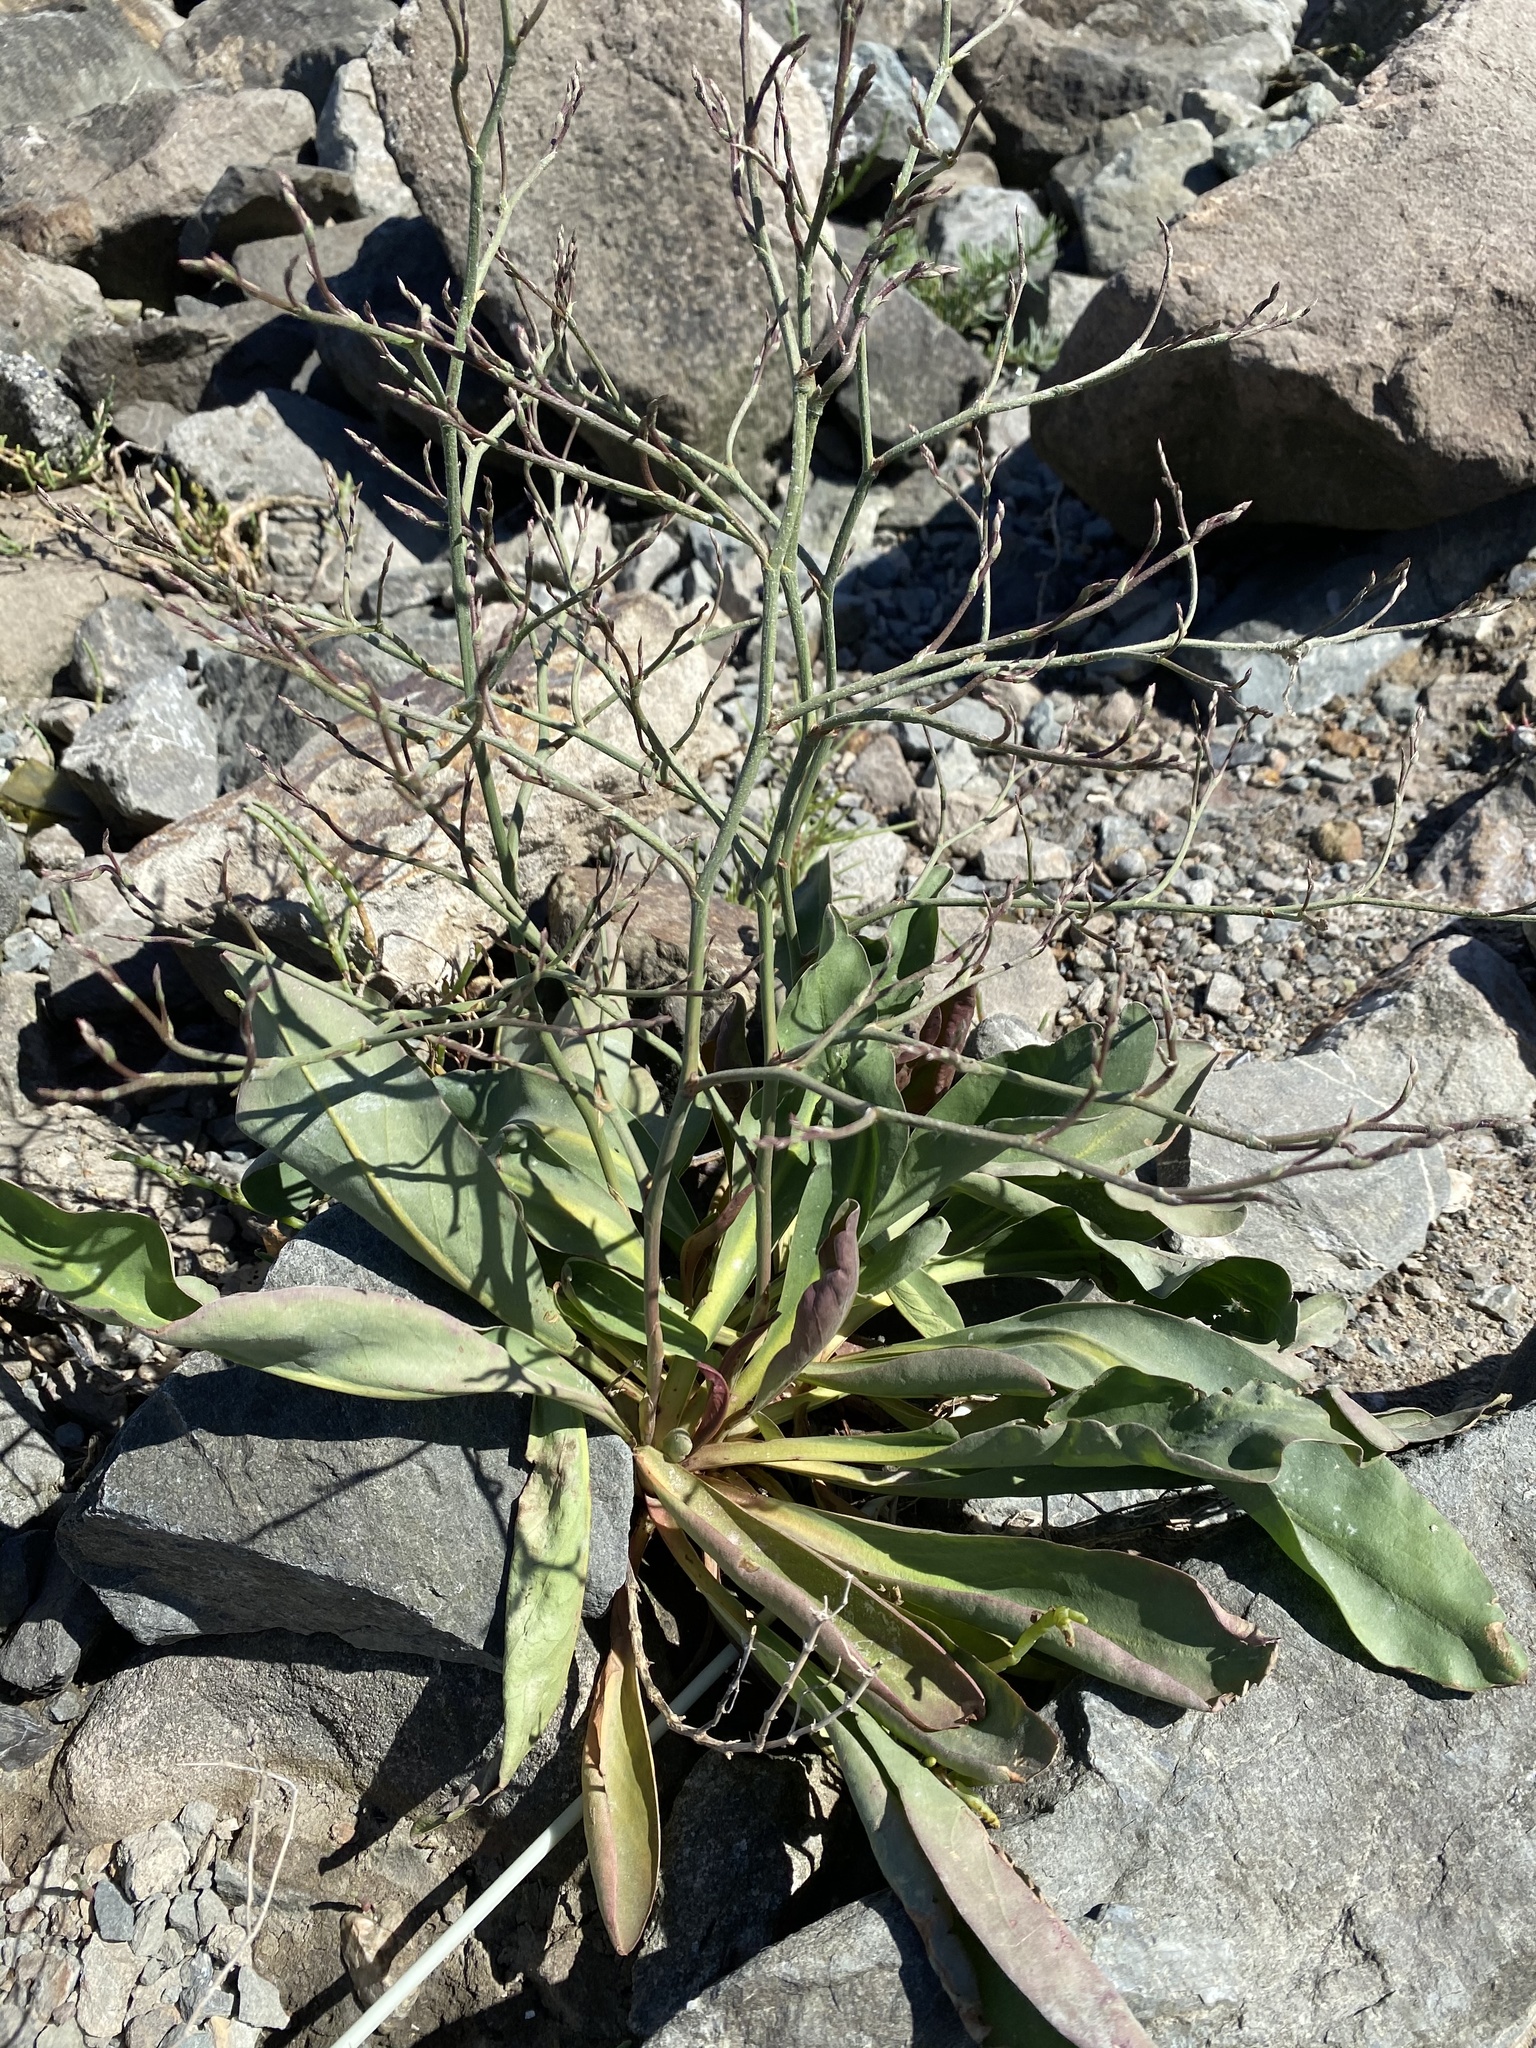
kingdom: Plantae
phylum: Tracheophyta
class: Magnoliopsida
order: Caryophyllales
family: Plumbaginaceae
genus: Limonium
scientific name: Limonium californicum
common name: Marsh-rosemary
